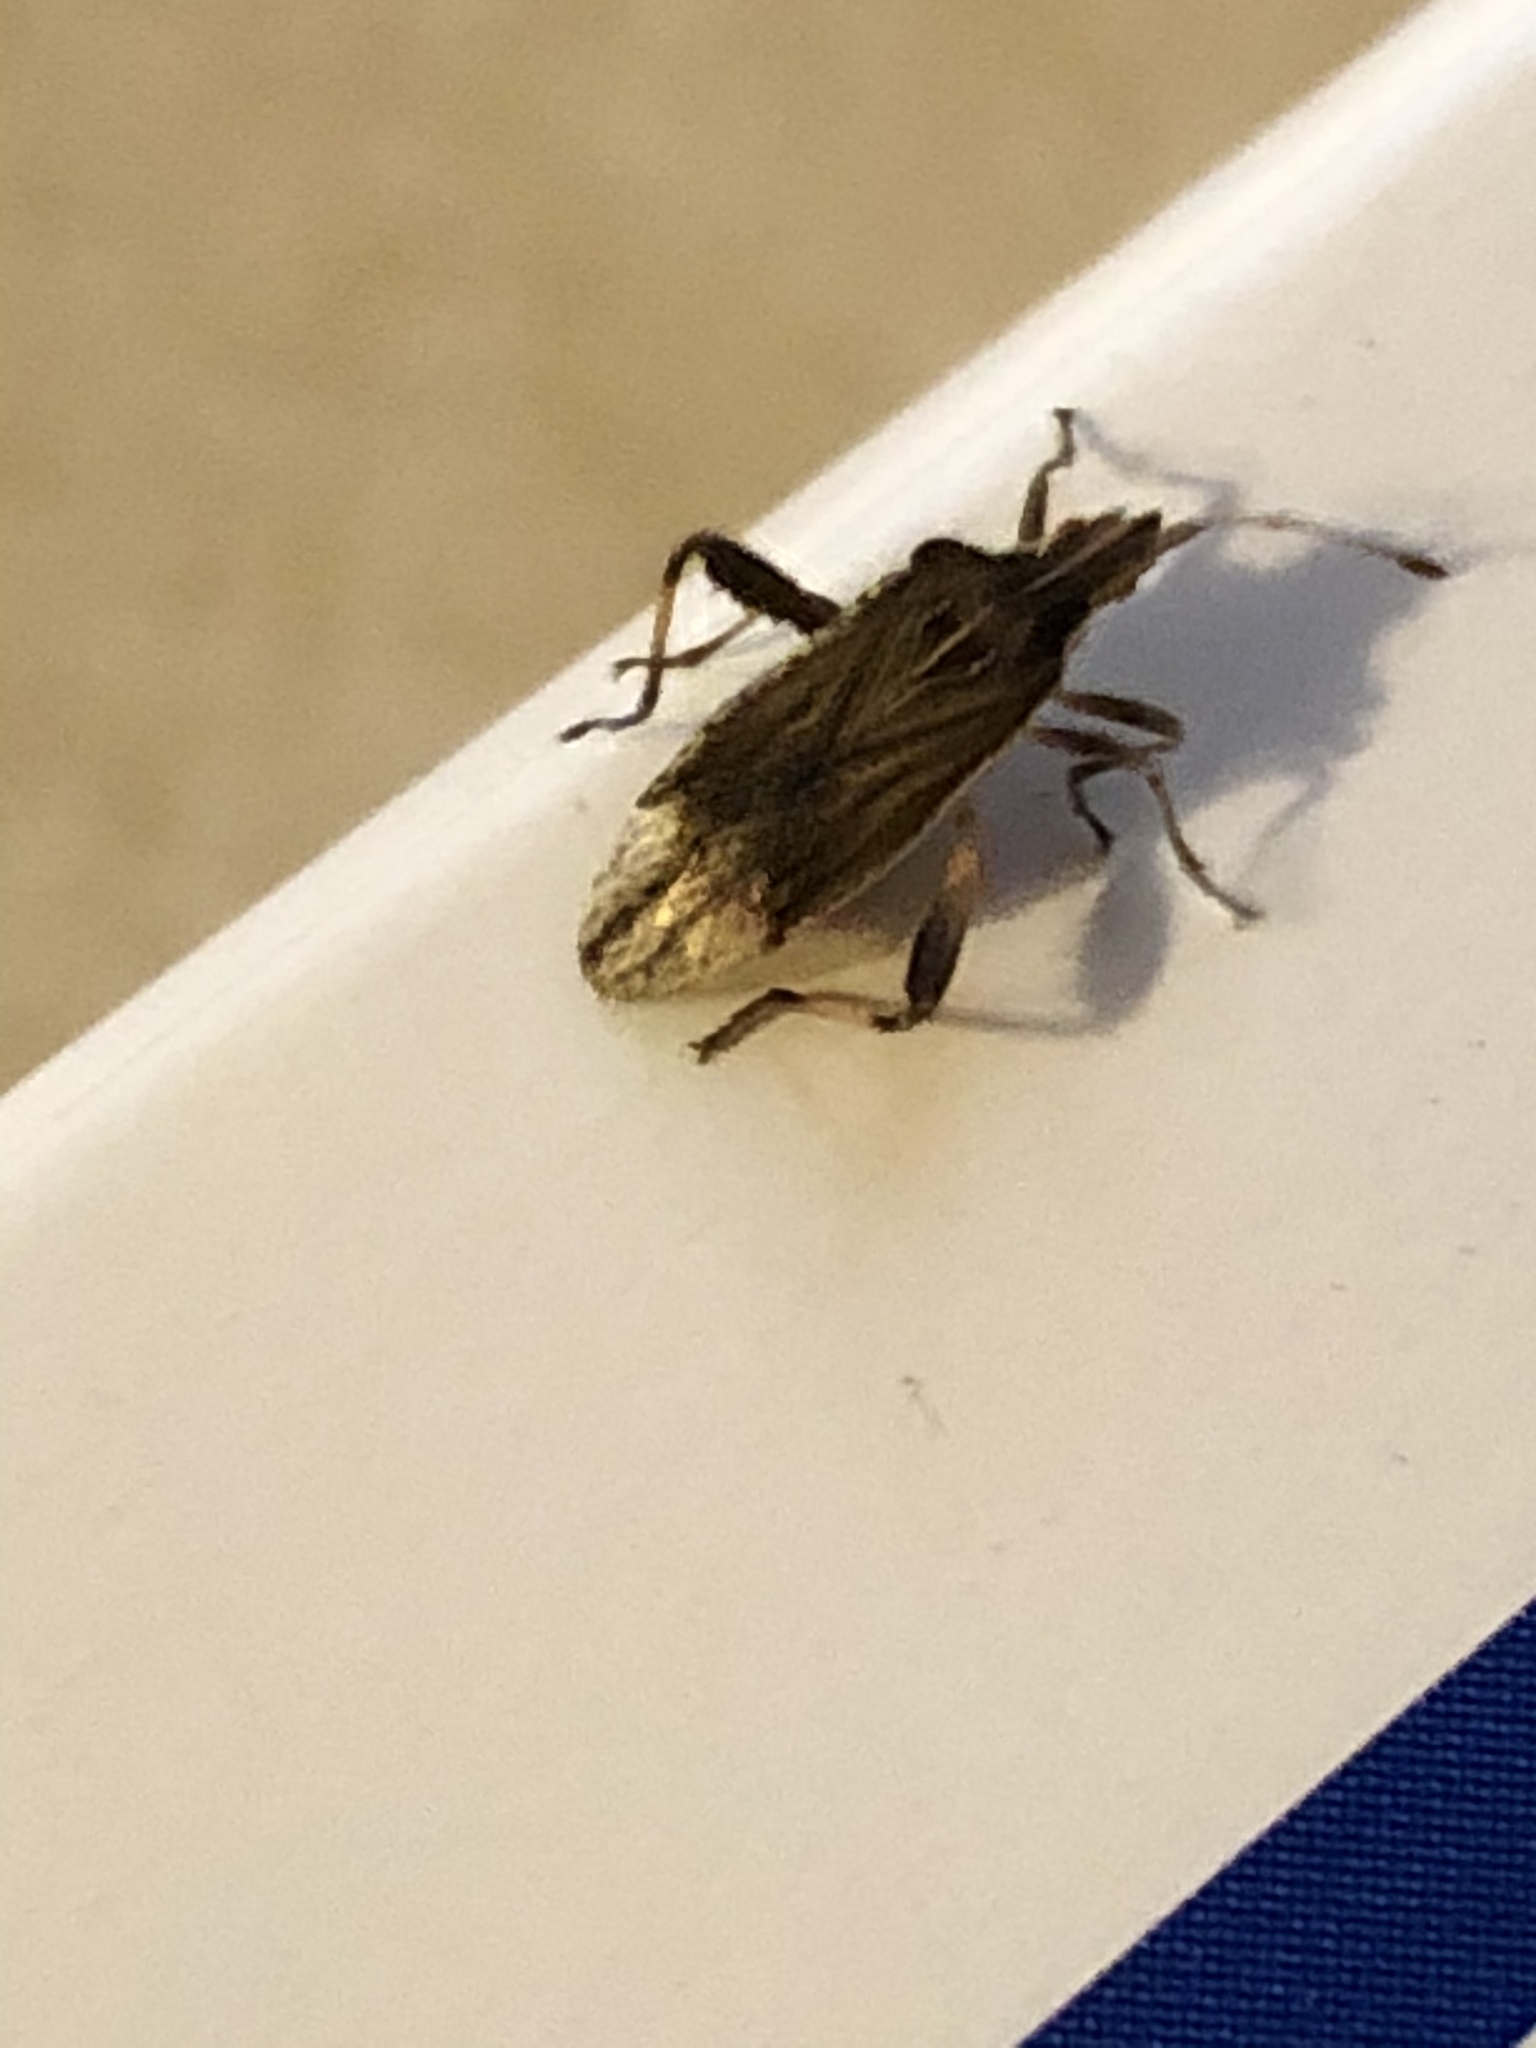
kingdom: Animalia
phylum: Arthropoda
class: Insecta
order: Hemiptera
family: Rhopalidae
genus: Harmostes
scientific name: Harmostes fraterculus
